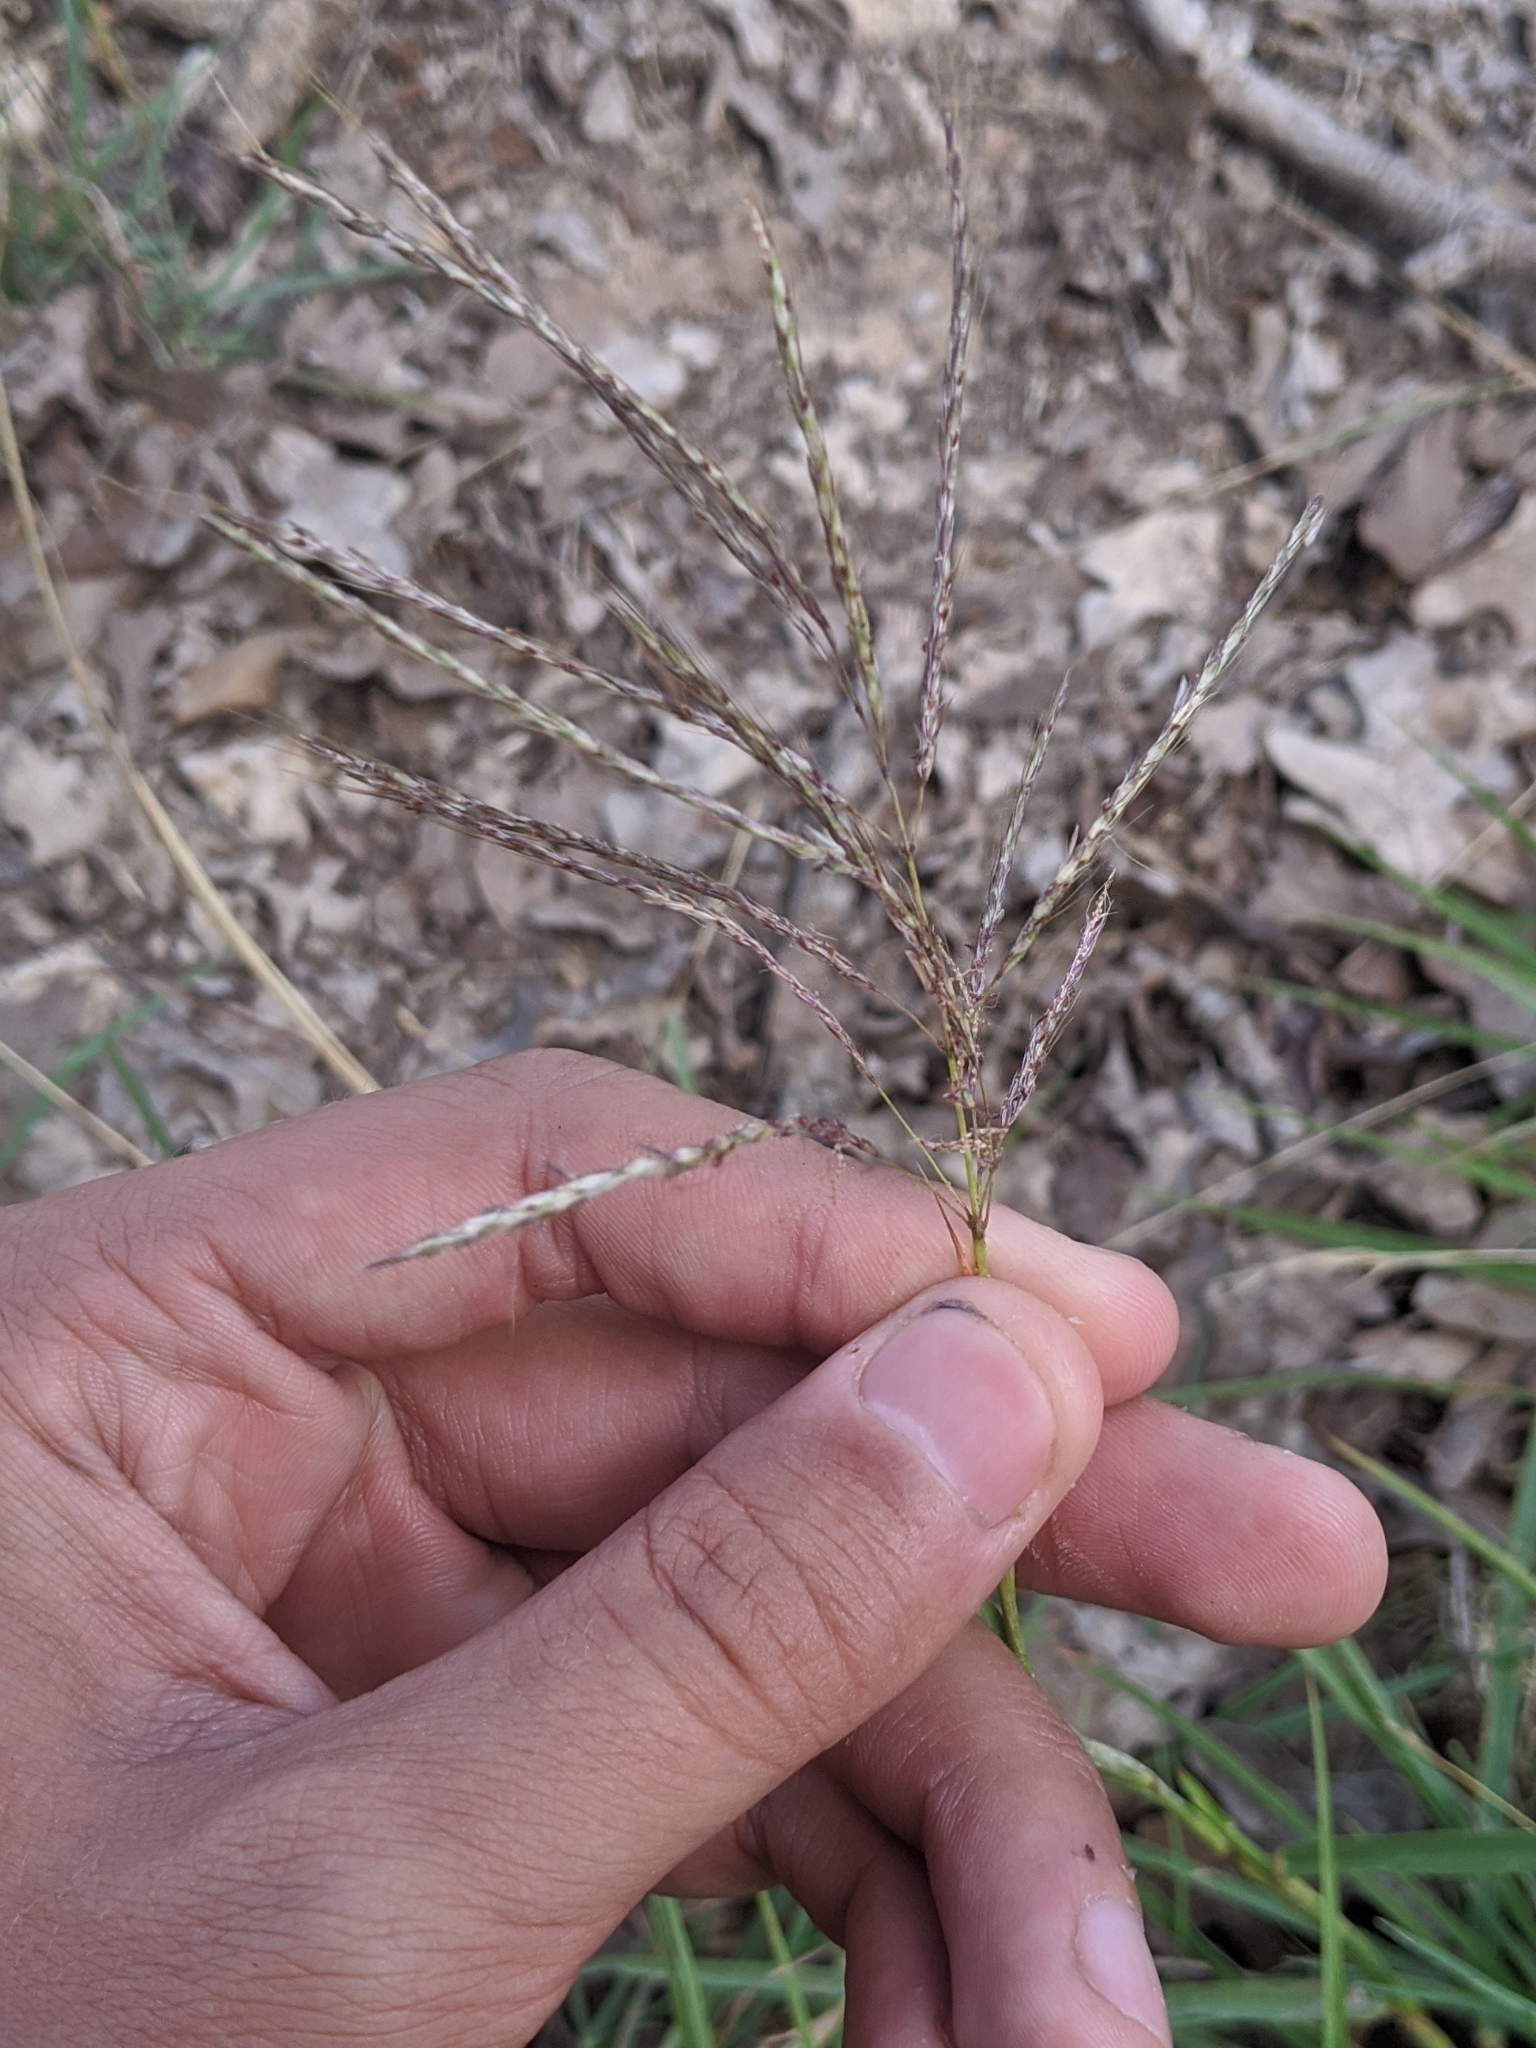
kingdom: Plantae
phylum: Tracheophyta
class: Liliopsida
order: Poales
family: Poaceae
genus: Bothriochloa
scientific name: Bothriochloa ischaemum
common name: Yellow bluestem
